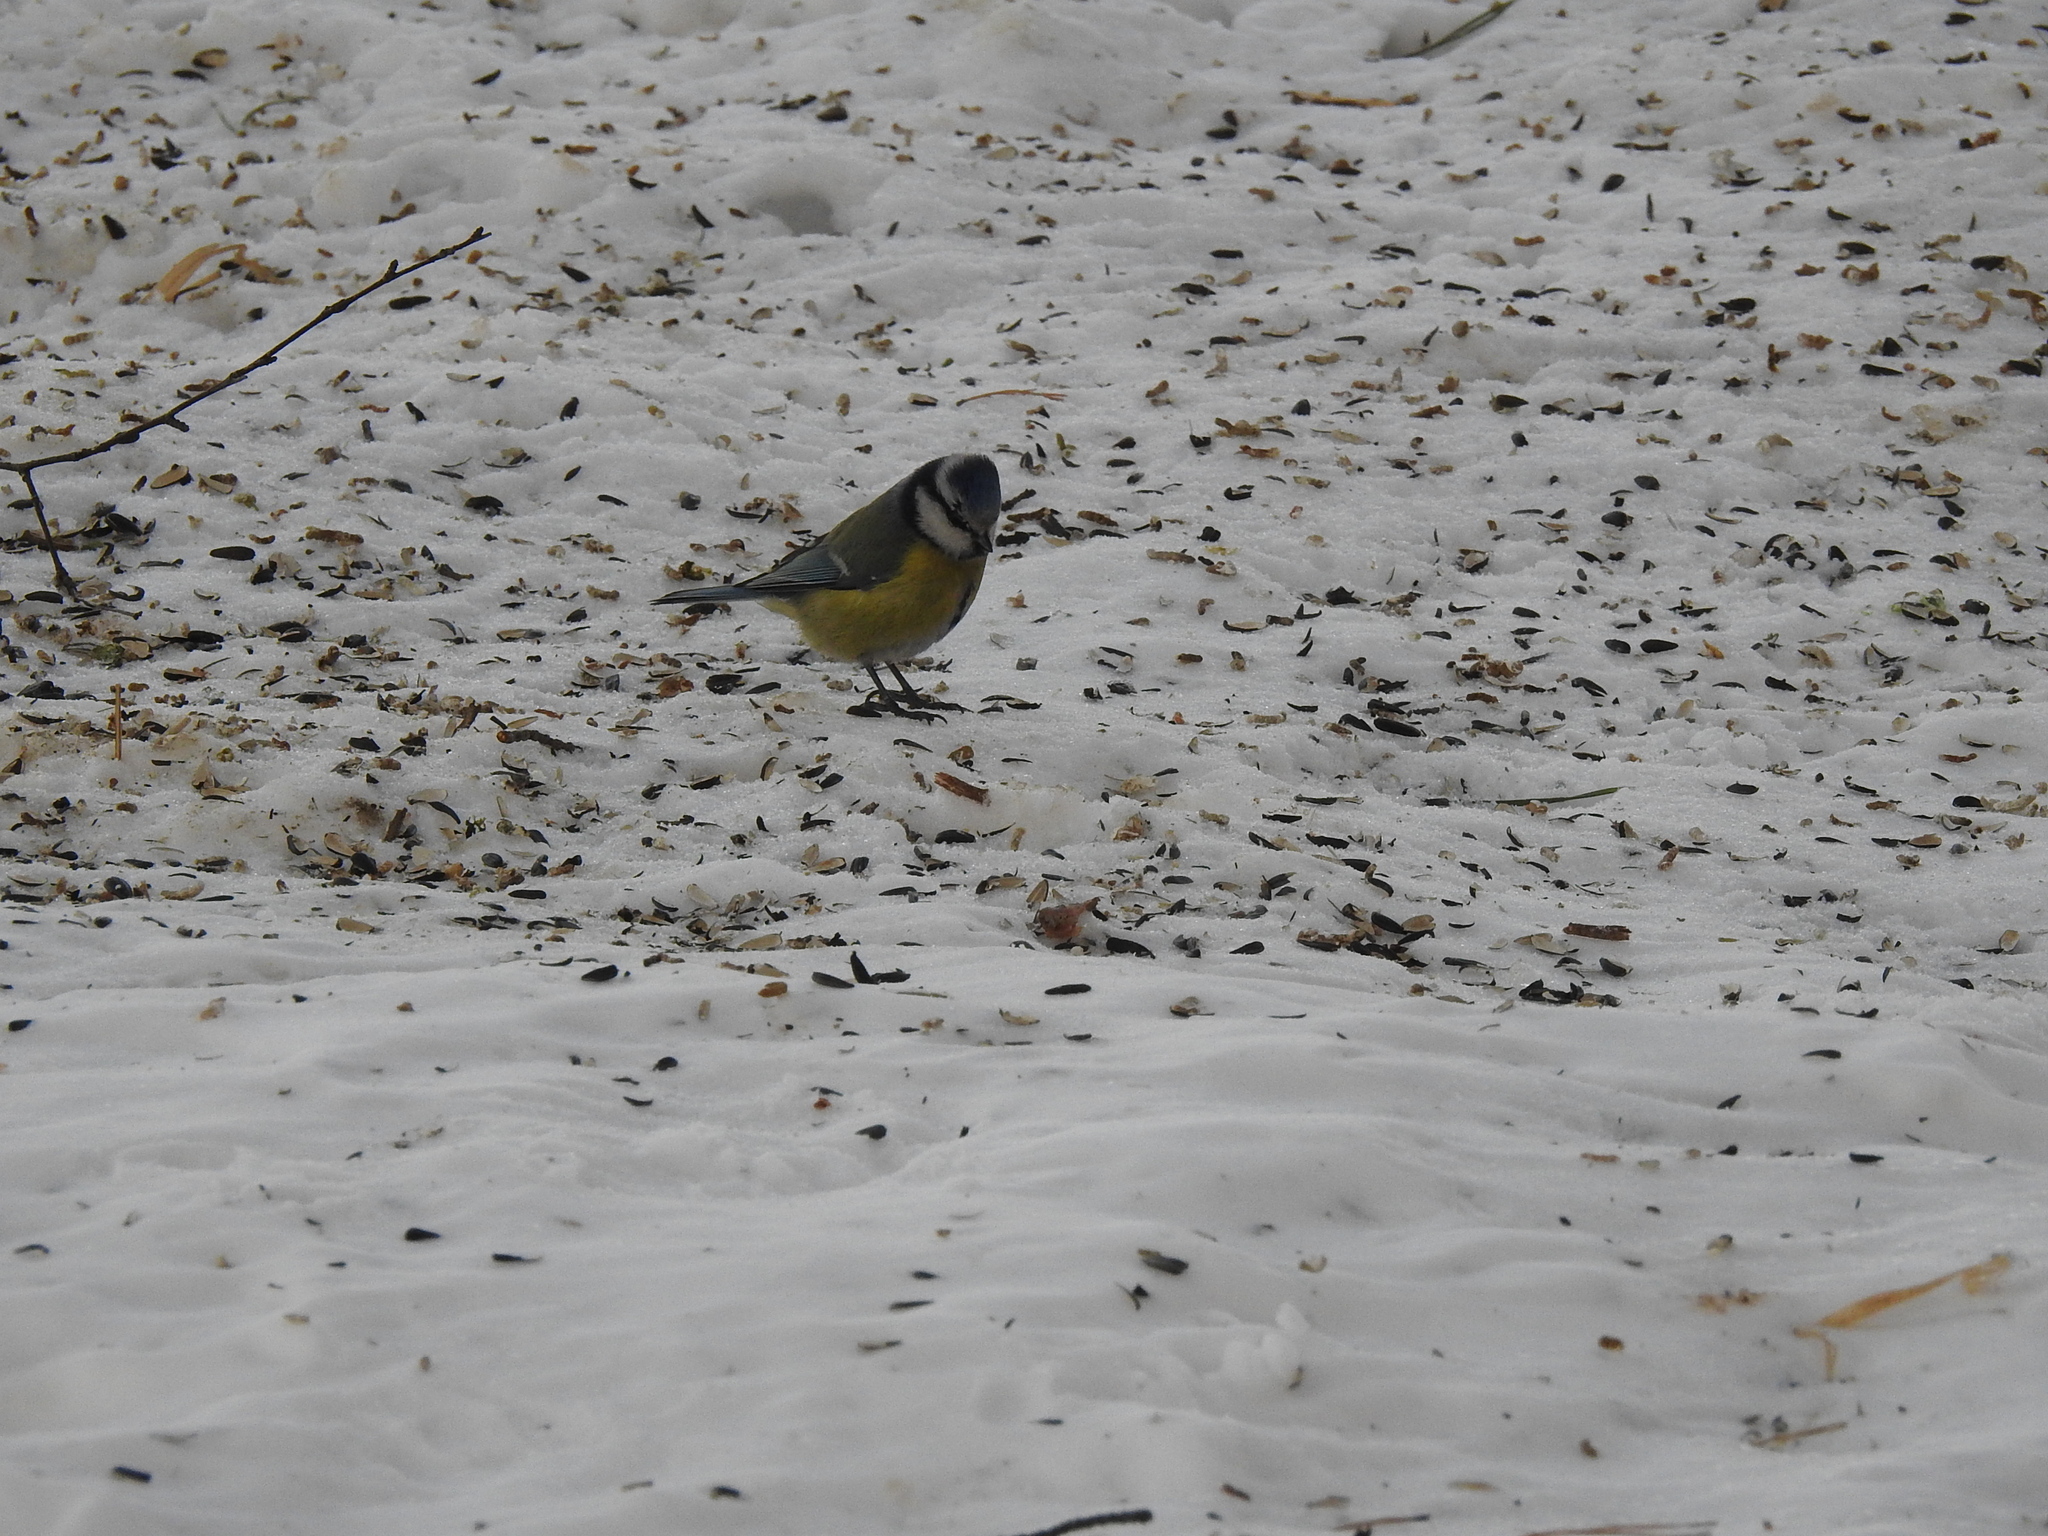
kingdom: Animalia
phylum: Chordata
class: Aves
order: Passeriformes
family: Paridae
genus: Cyanistes
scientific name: Cyanistes caeruleus
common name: Eurasian blue tit
